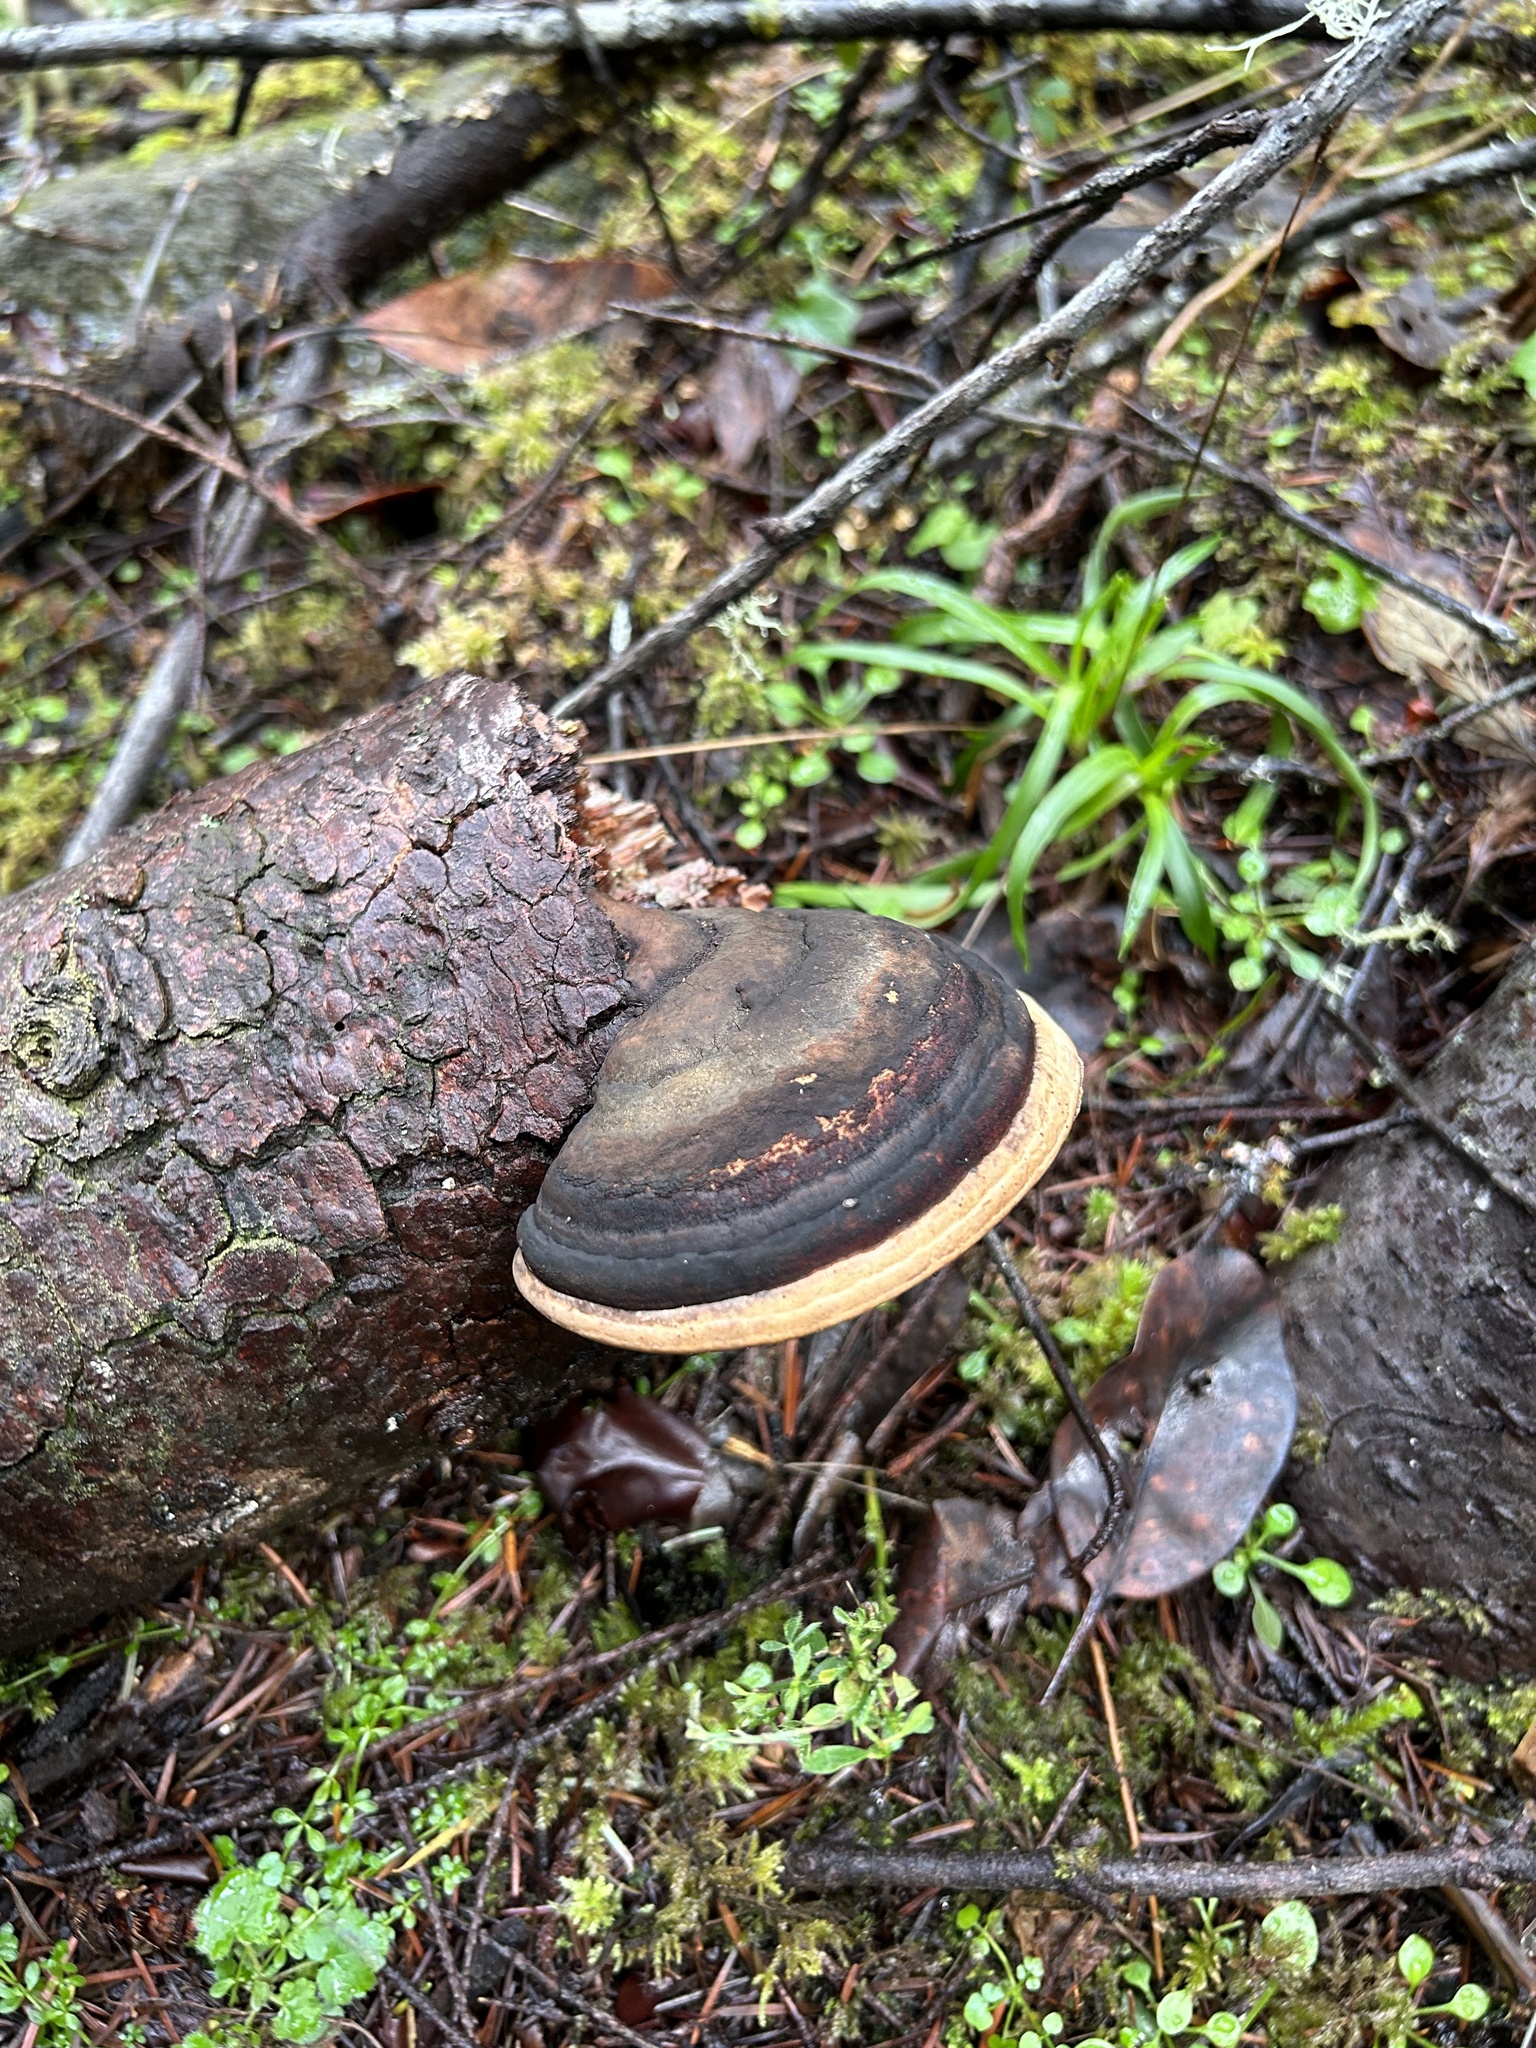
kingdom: Fungi
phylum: Basidiomycota
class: Agaricomycetes
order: Polyporales
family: Fomitopsidaceae
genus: Fomitopsis
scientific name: Fomitopsis ochracea
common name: American brown fomitopsis
